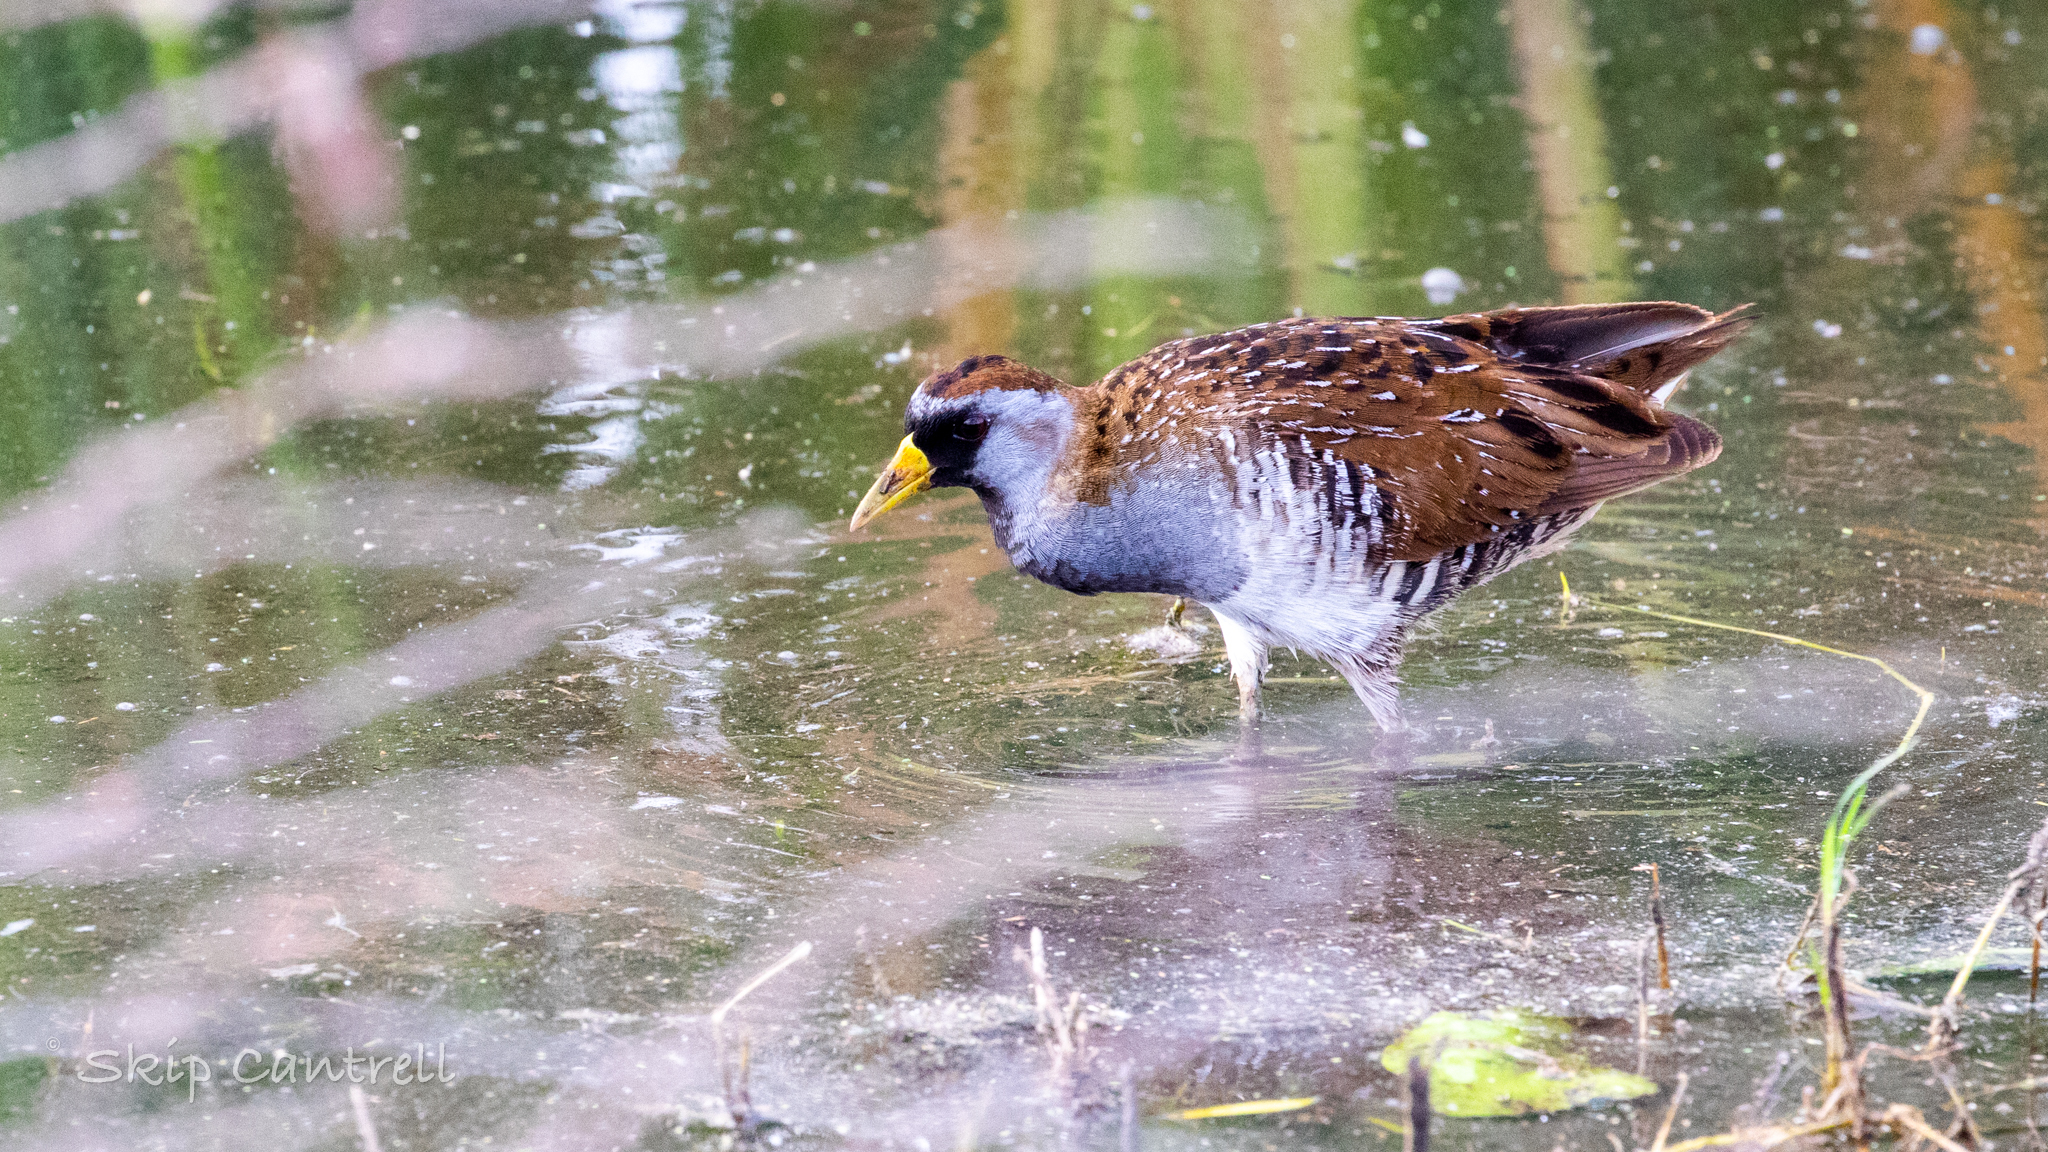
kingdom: Animalia
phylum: Chordata
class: Aves
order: Gruiformes
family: Rallidae
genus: Porzana
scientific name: Porzana carolina
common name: Sora
